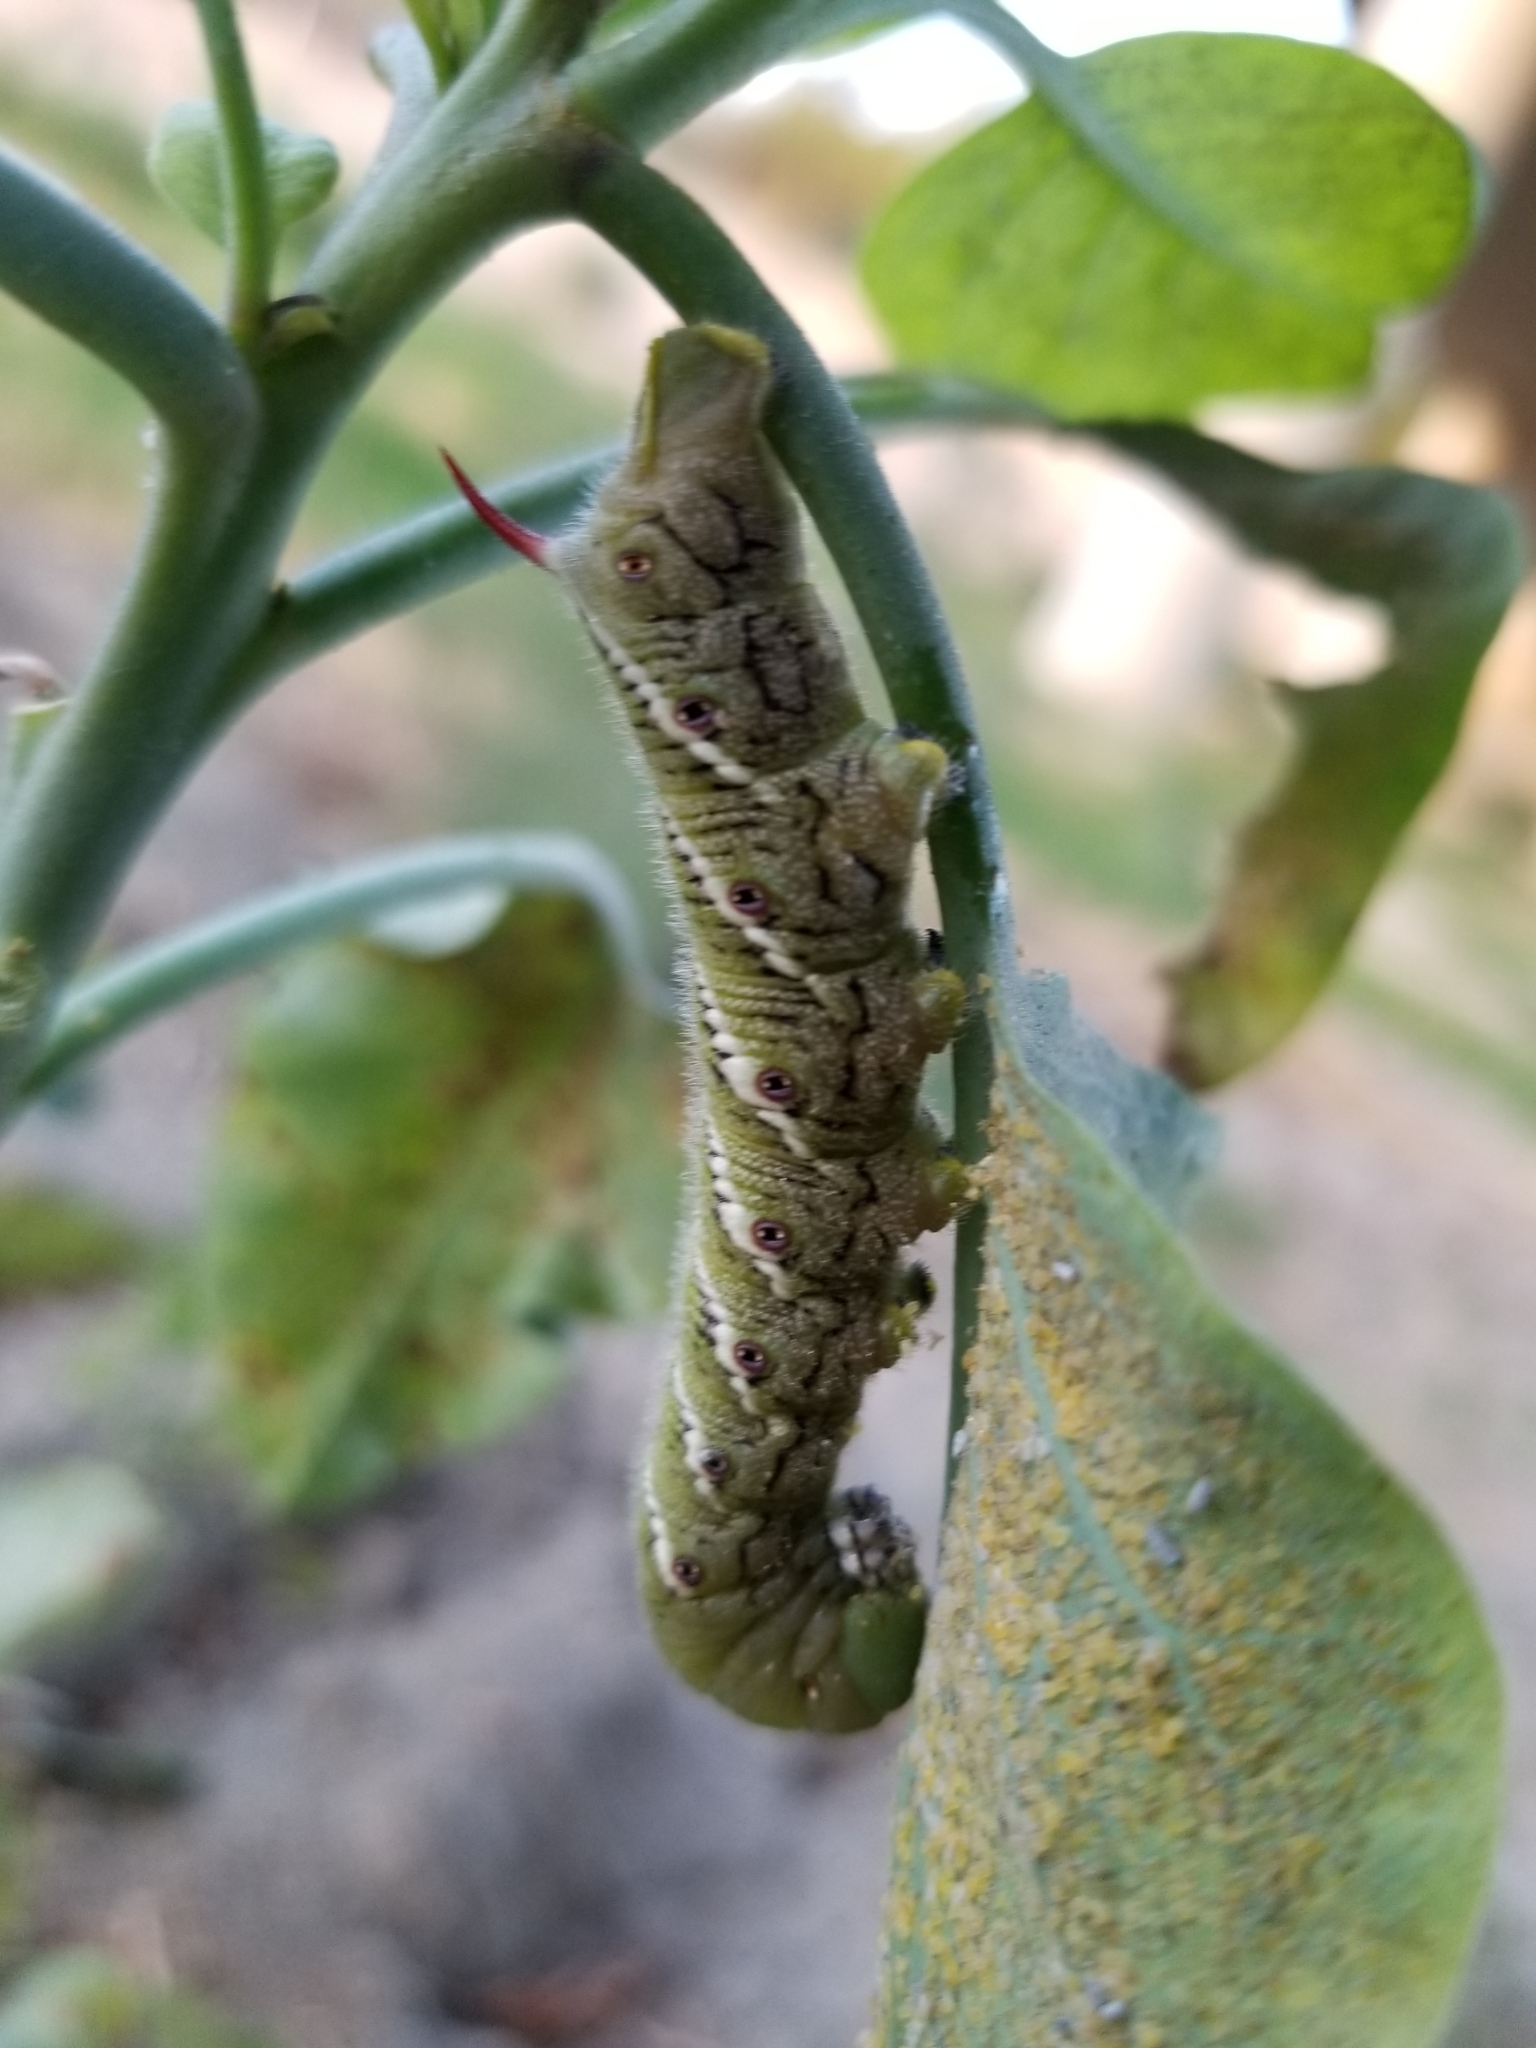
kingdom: Animalia
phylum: Arthropoda
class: Insecta
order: Lepidoptera
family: Sphingidae
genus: Manduca
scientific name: Manduca sexta
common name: Carolina sphinx
